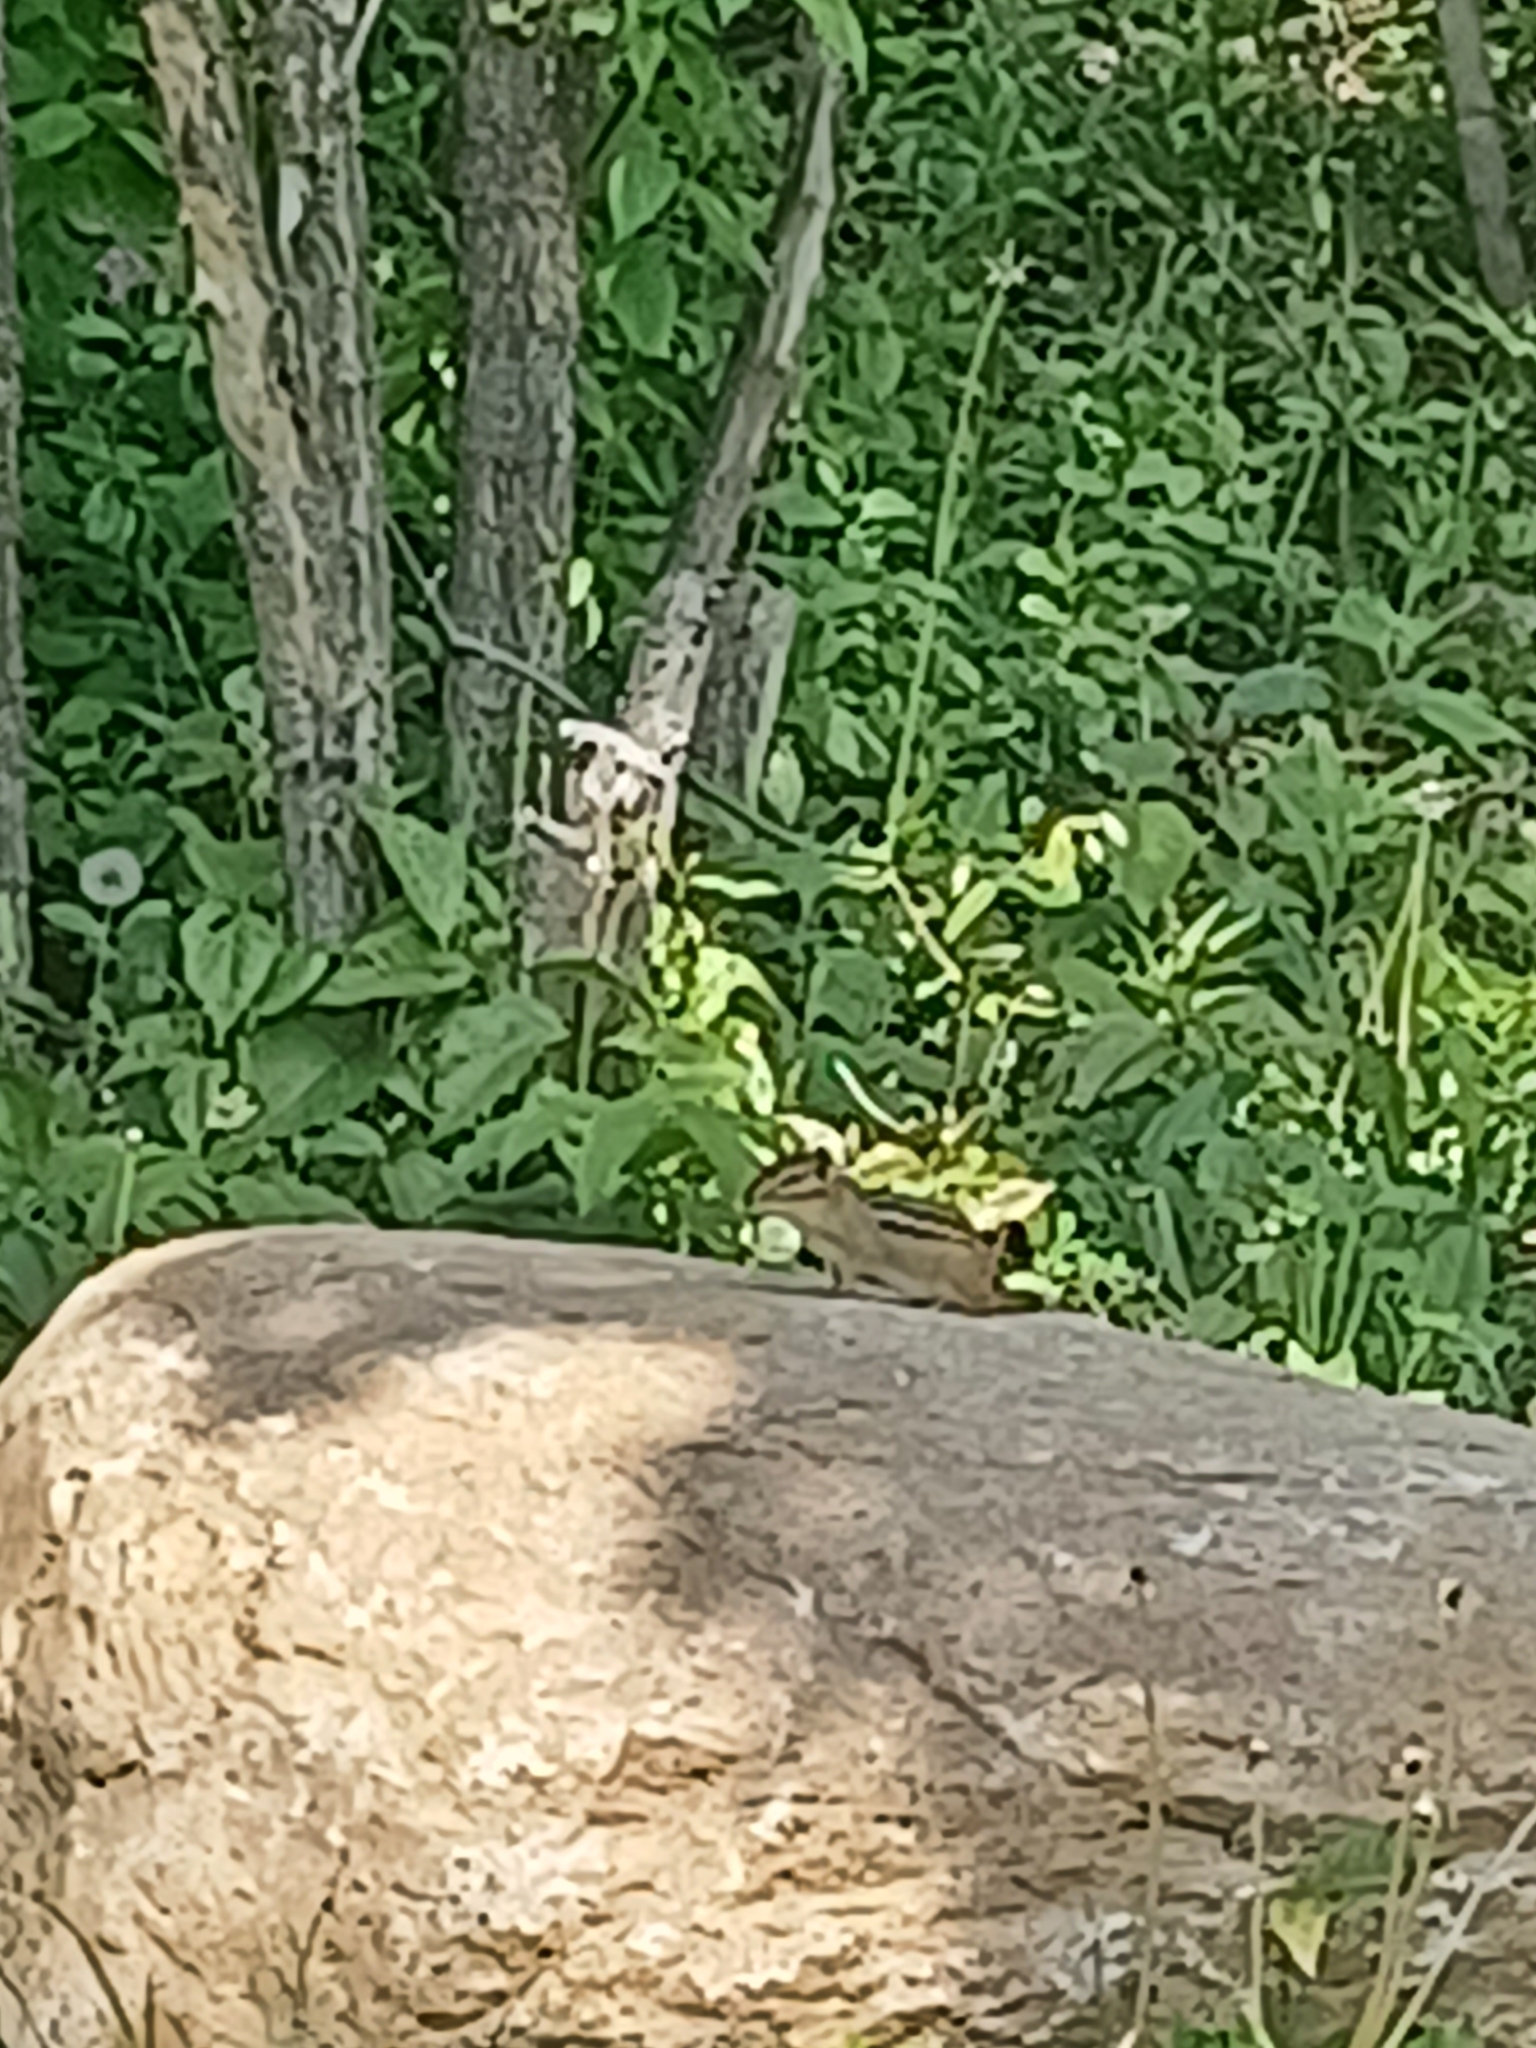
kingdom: Animalia
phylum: Chordata
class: Mammalia
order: Rodentia
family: Sciuridae
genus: Tamias
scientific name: Tamias striatus
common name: Eastern chipmunk
